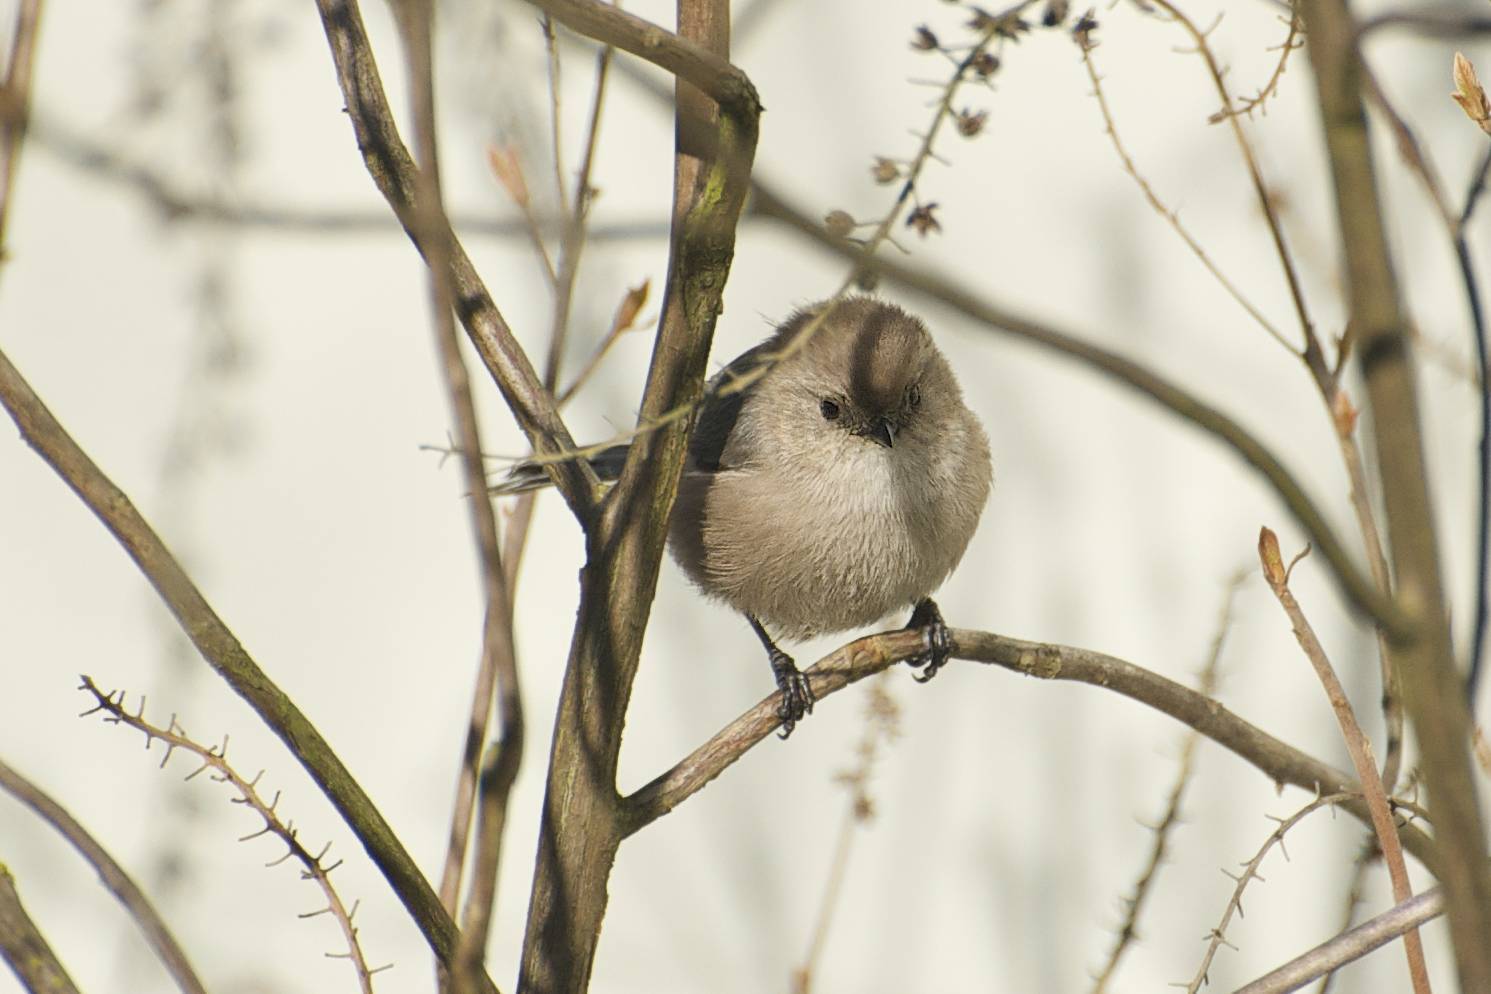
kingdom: Animalia
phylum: Chordata
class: Aves
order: Passeriformes
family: Aegithalidae
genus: Psaltriparus
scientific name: Psaltriparus minimus
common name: American bushtit
